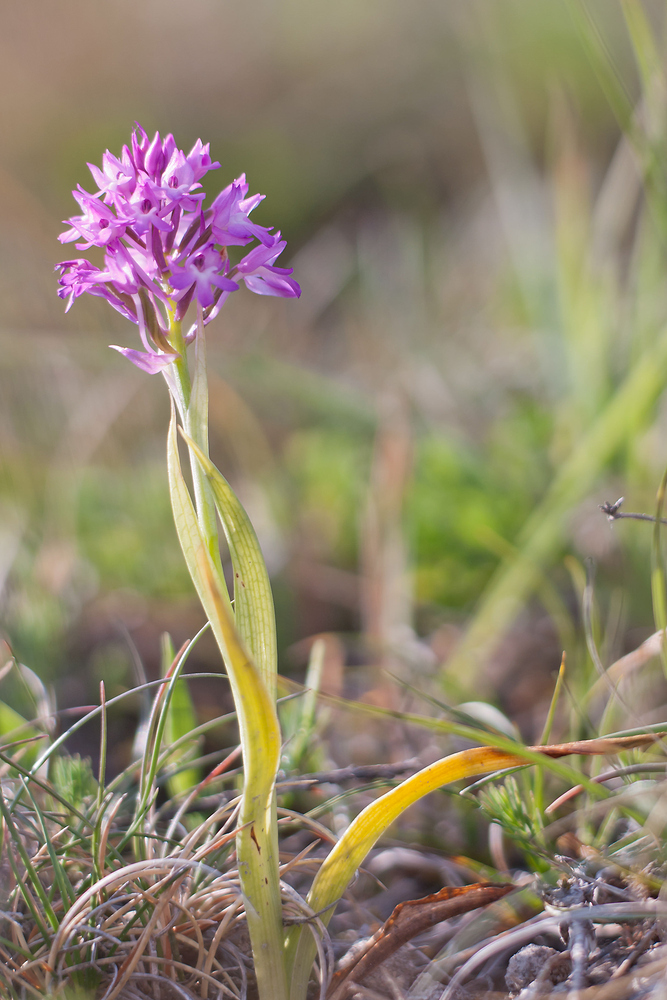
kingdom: Plantae
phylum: Tracheophyta
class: Liliopsida
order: Asparagales
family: Orchidaceae
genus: Anacamptis
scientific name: Anacamptis pyramidalis
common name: Pyramidal orchid
